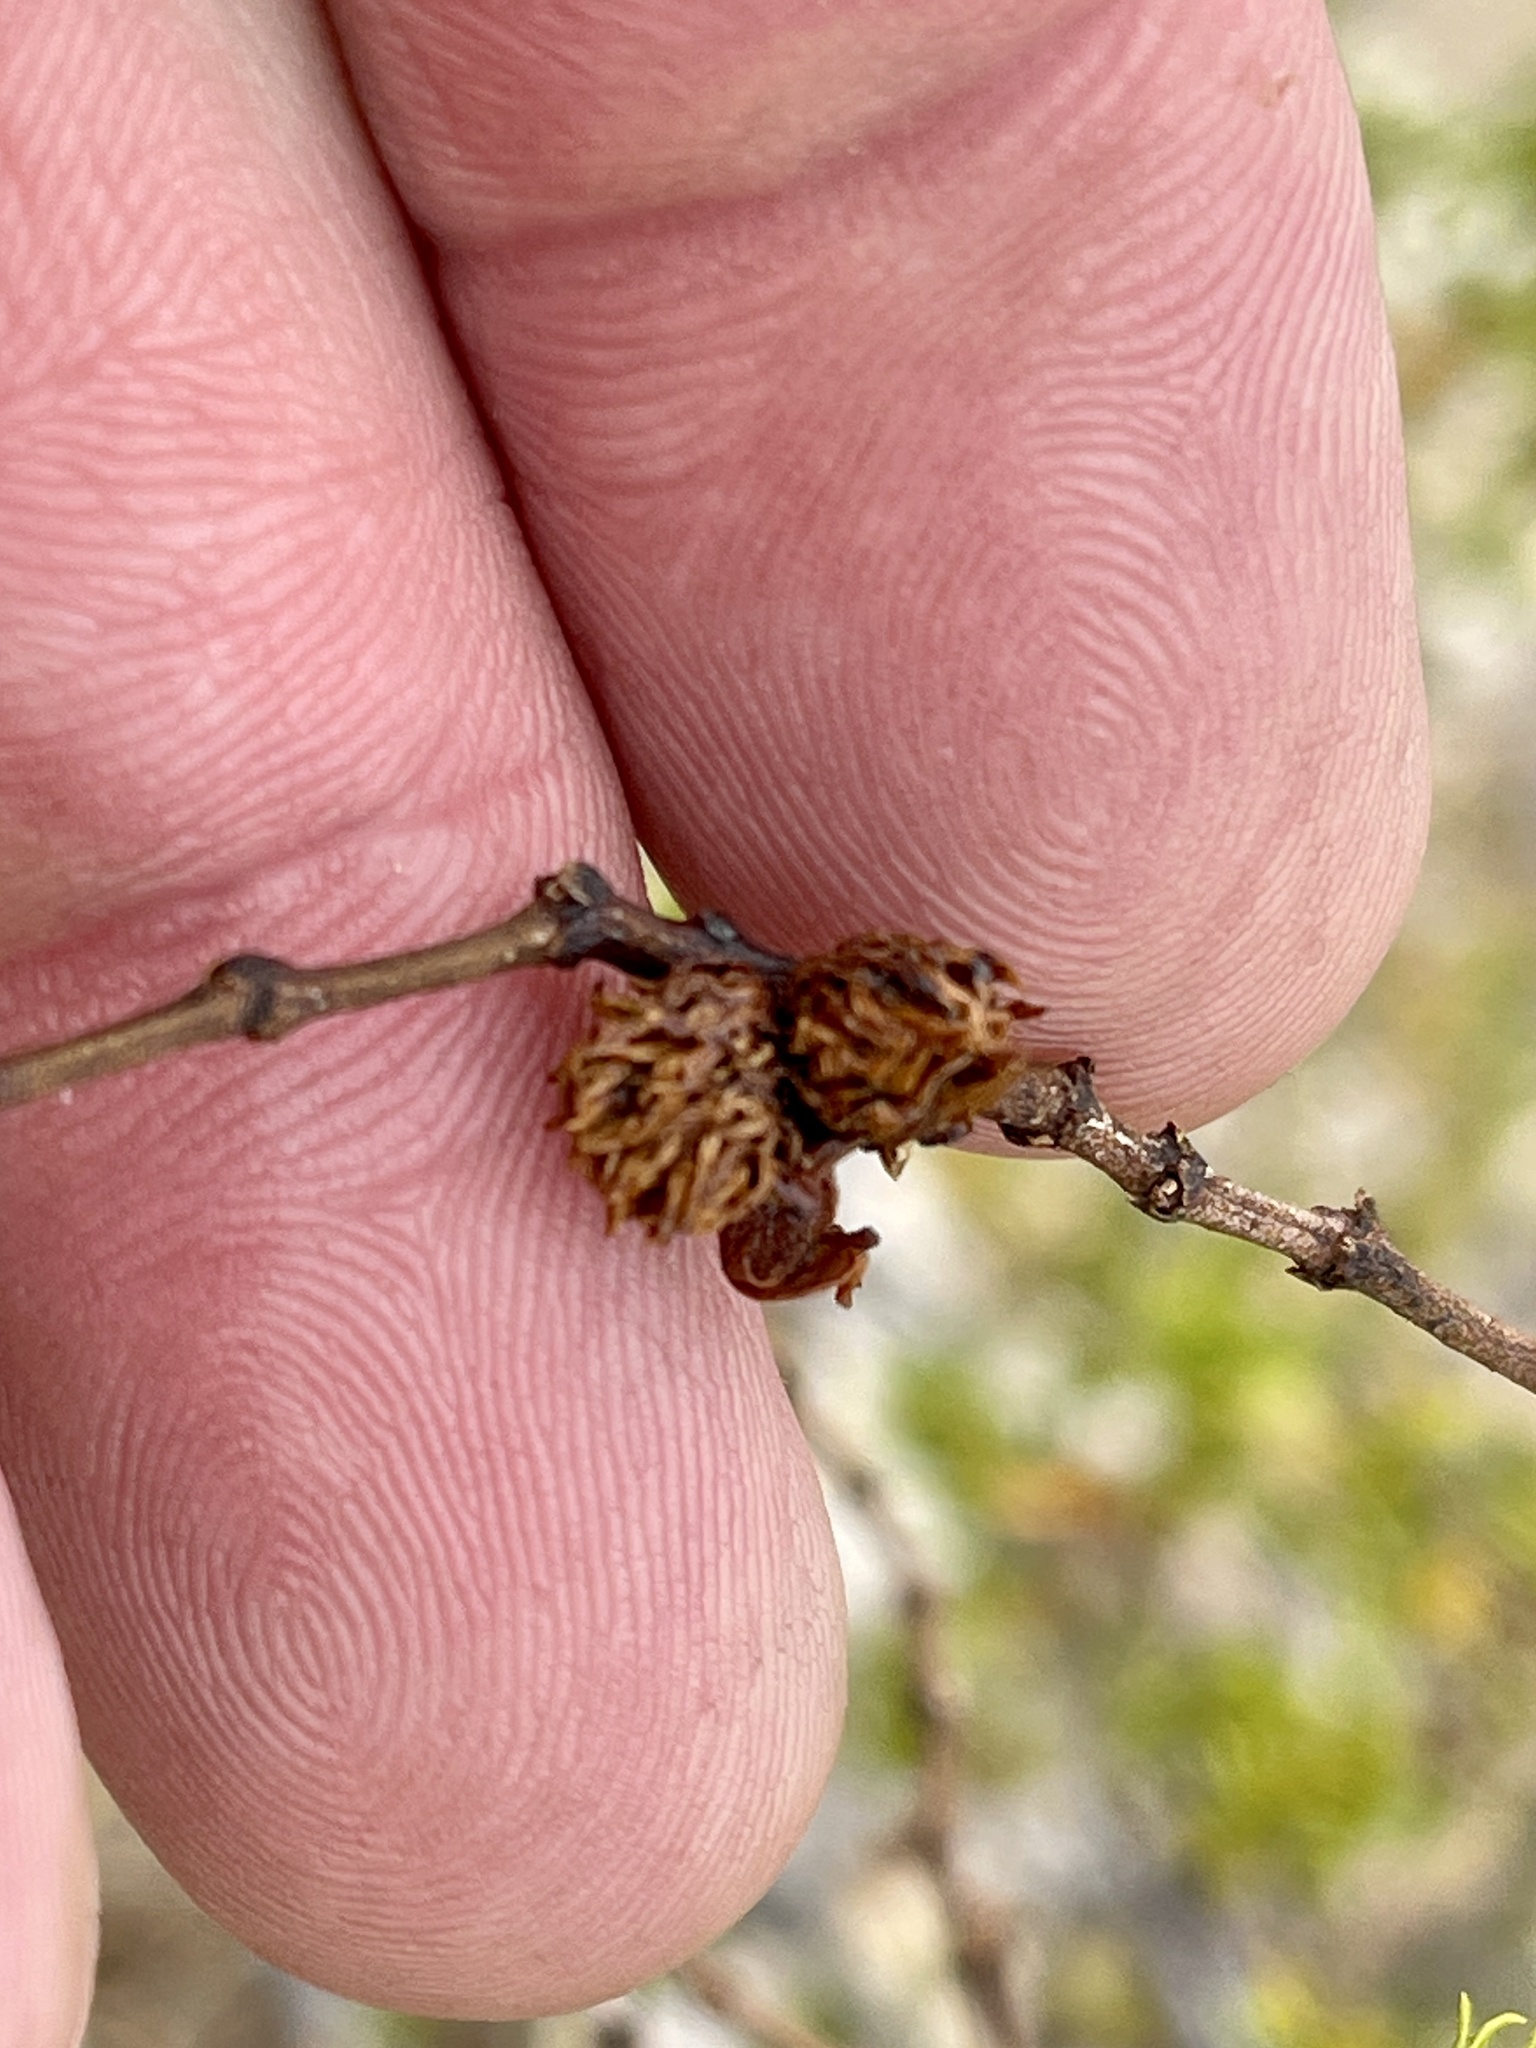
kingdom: Animalia
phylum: Arthropoda
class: Insecta
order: Diptera
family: Cecidomyiidae
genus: Asphondylia
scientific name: Asphondylia rosetta
